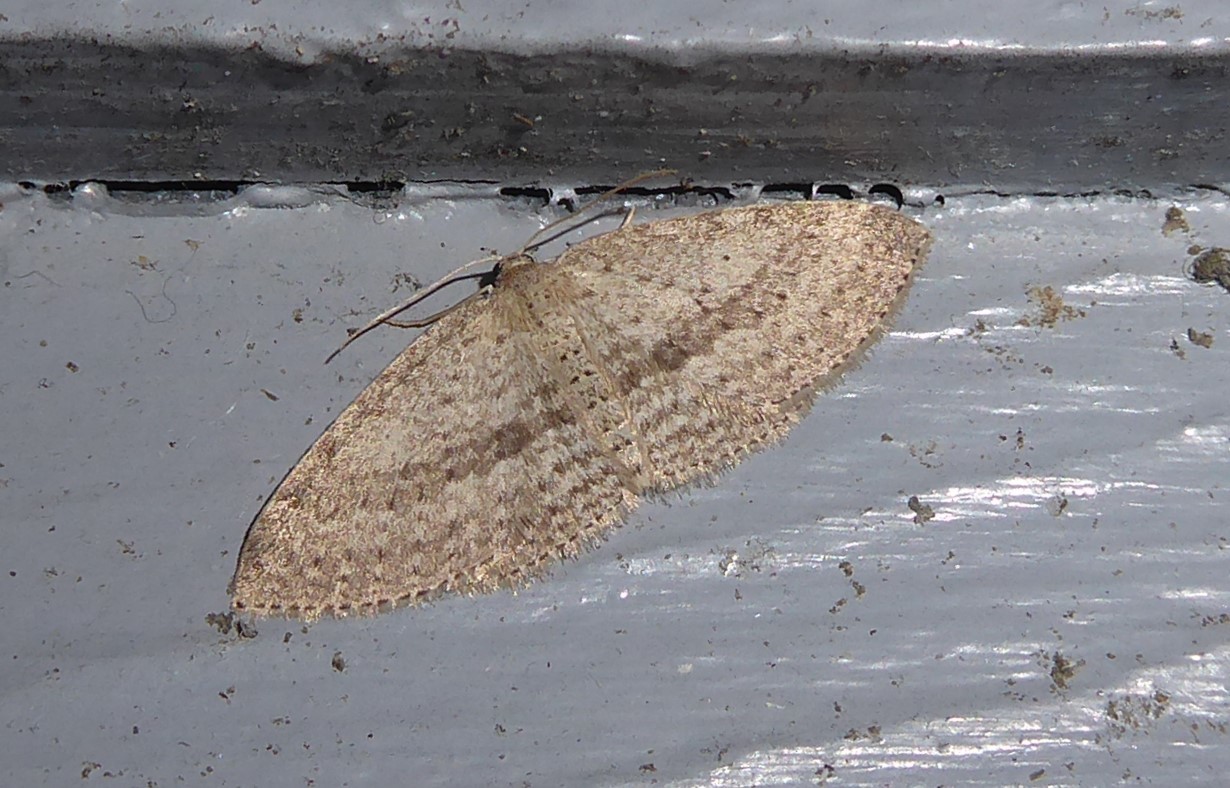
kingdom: Animalia
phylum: Arthropoda
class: Insecta
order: Lepidoptera
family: Geometridae
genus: Poecilasthena
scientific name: Poecilasthena schistaria
